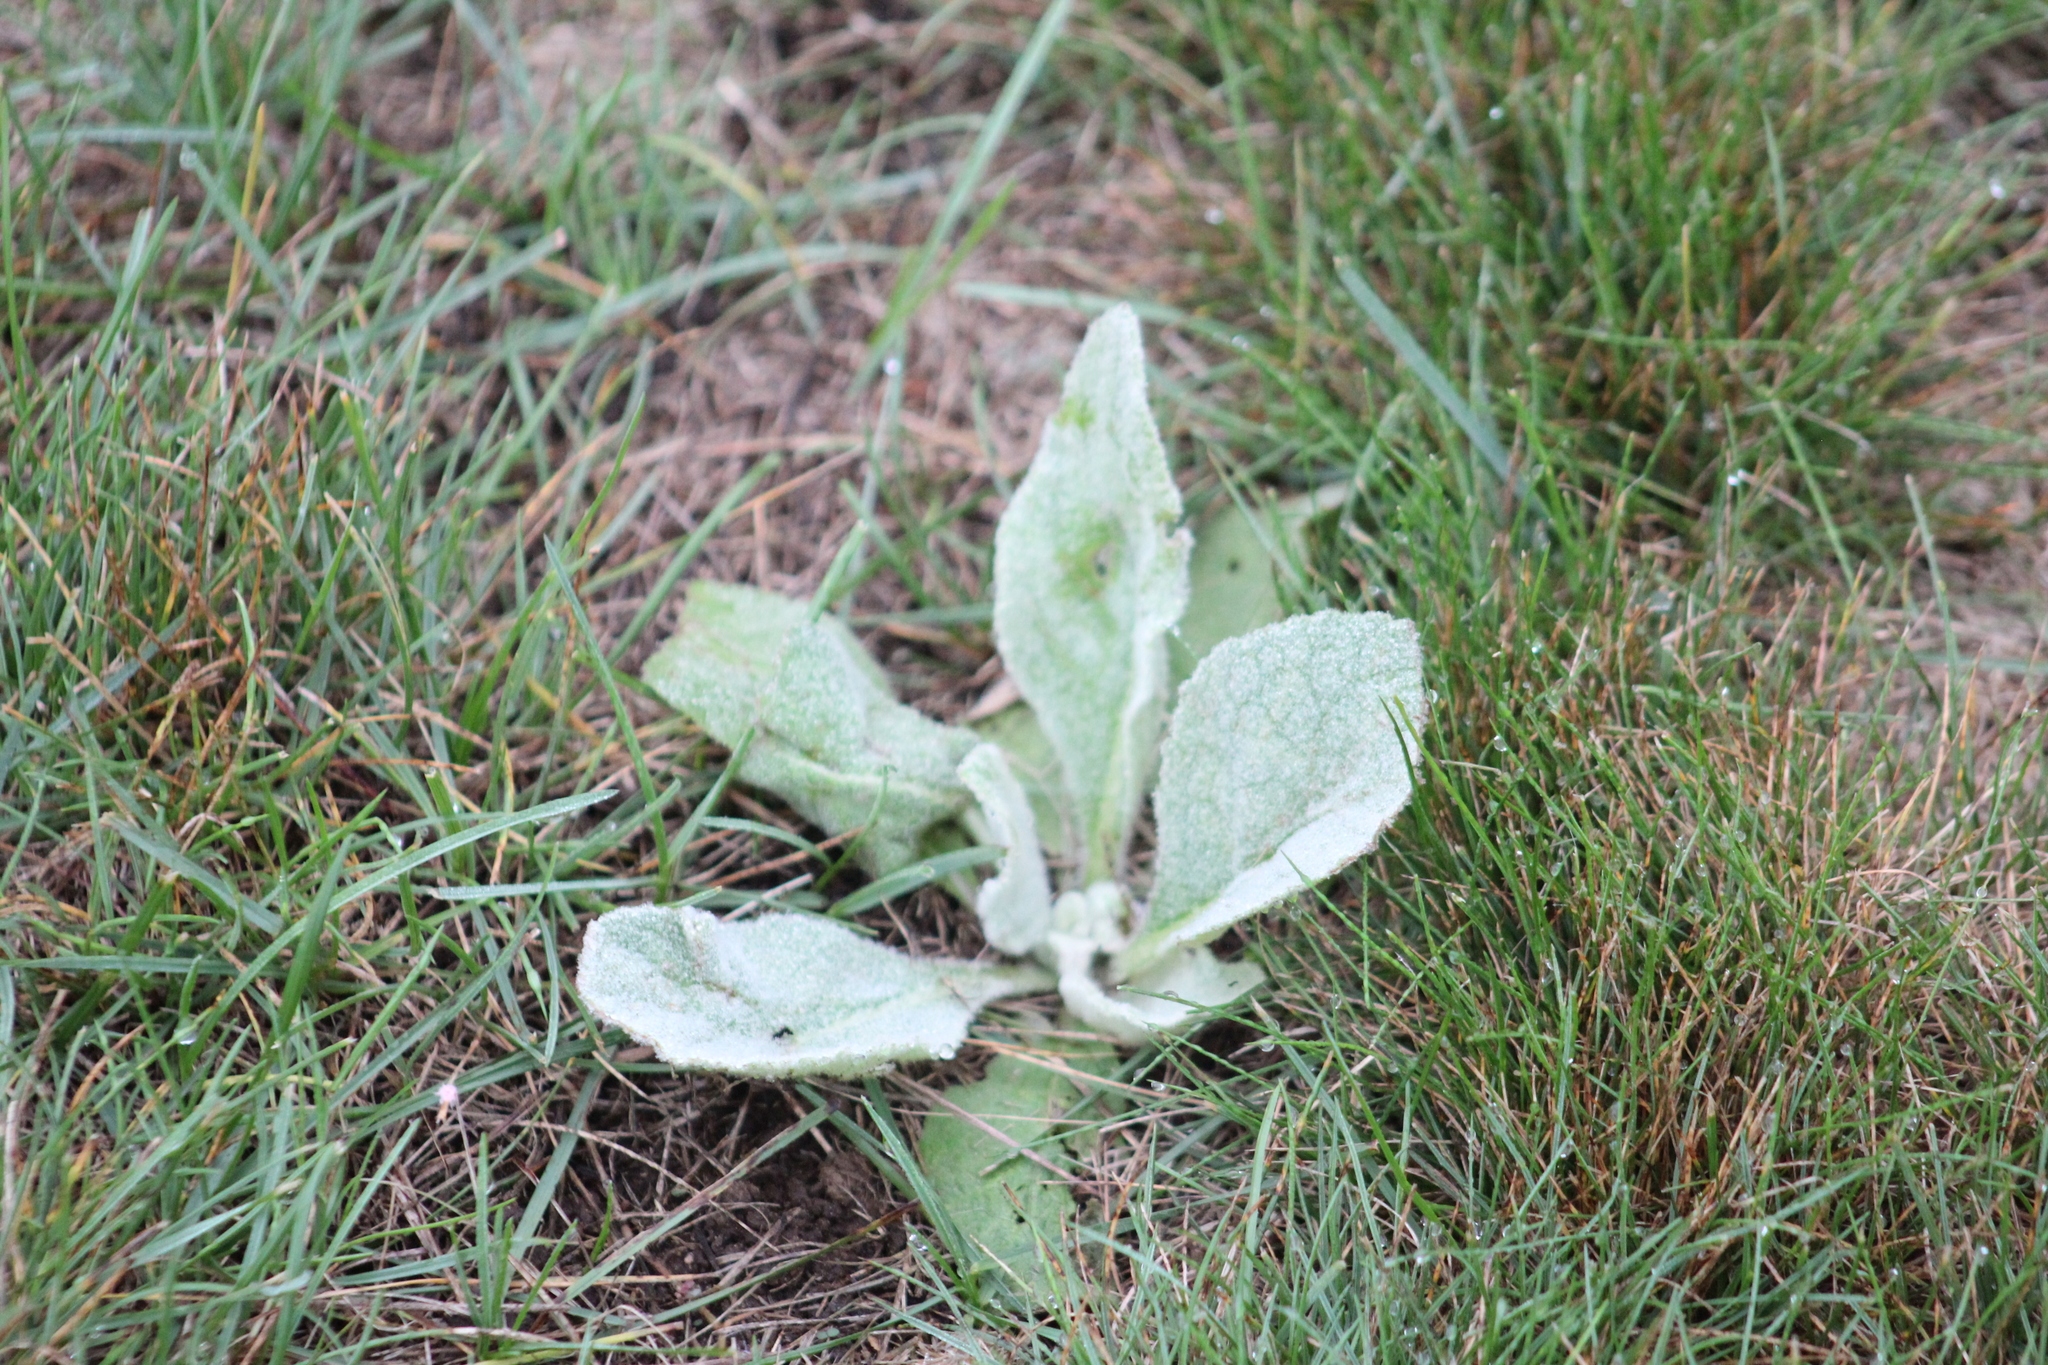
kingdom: Plantae
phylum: Tracheophyta
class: Magnoliopsida
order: Lamiales
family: Scrophulariaceae
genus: Verbascum
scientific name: Verbascum thapsus
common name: Common mullein
